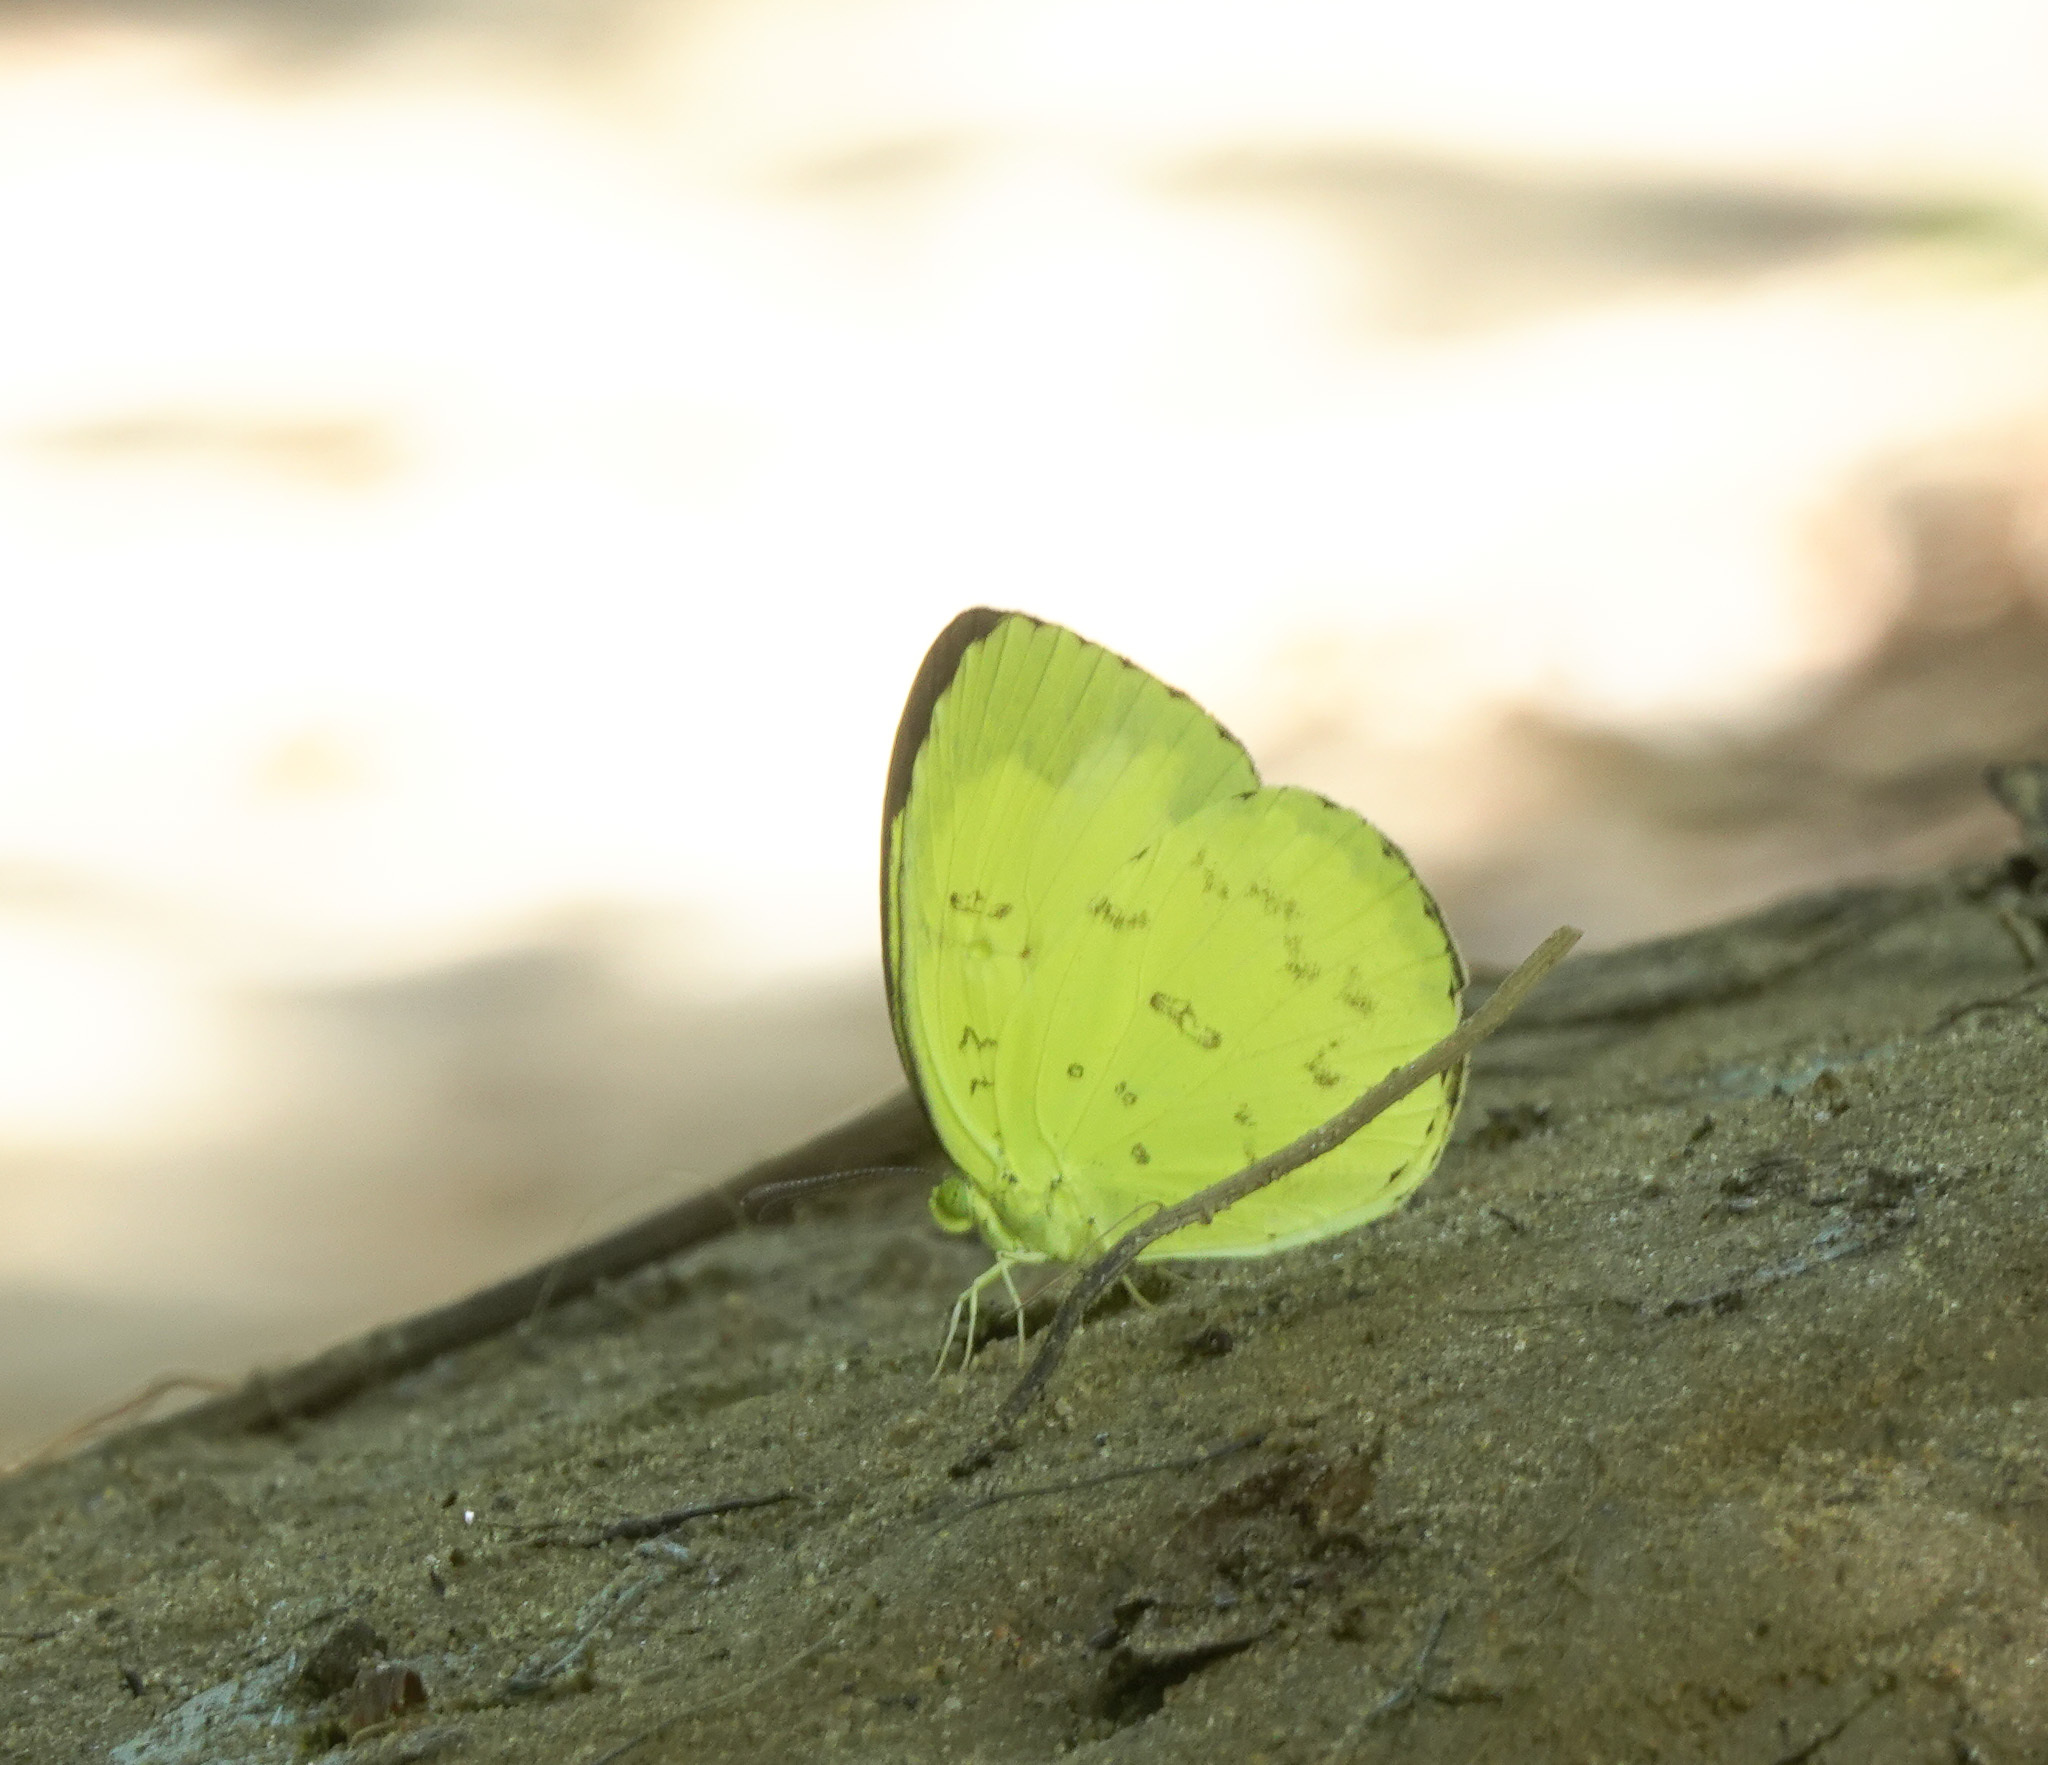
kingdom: Animalia
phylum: Arthropoda
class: Insecta
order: Lepidoptera
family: Pieridae
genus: Eurema
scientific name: Eurema blanda
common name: Three-spot grass yellow
